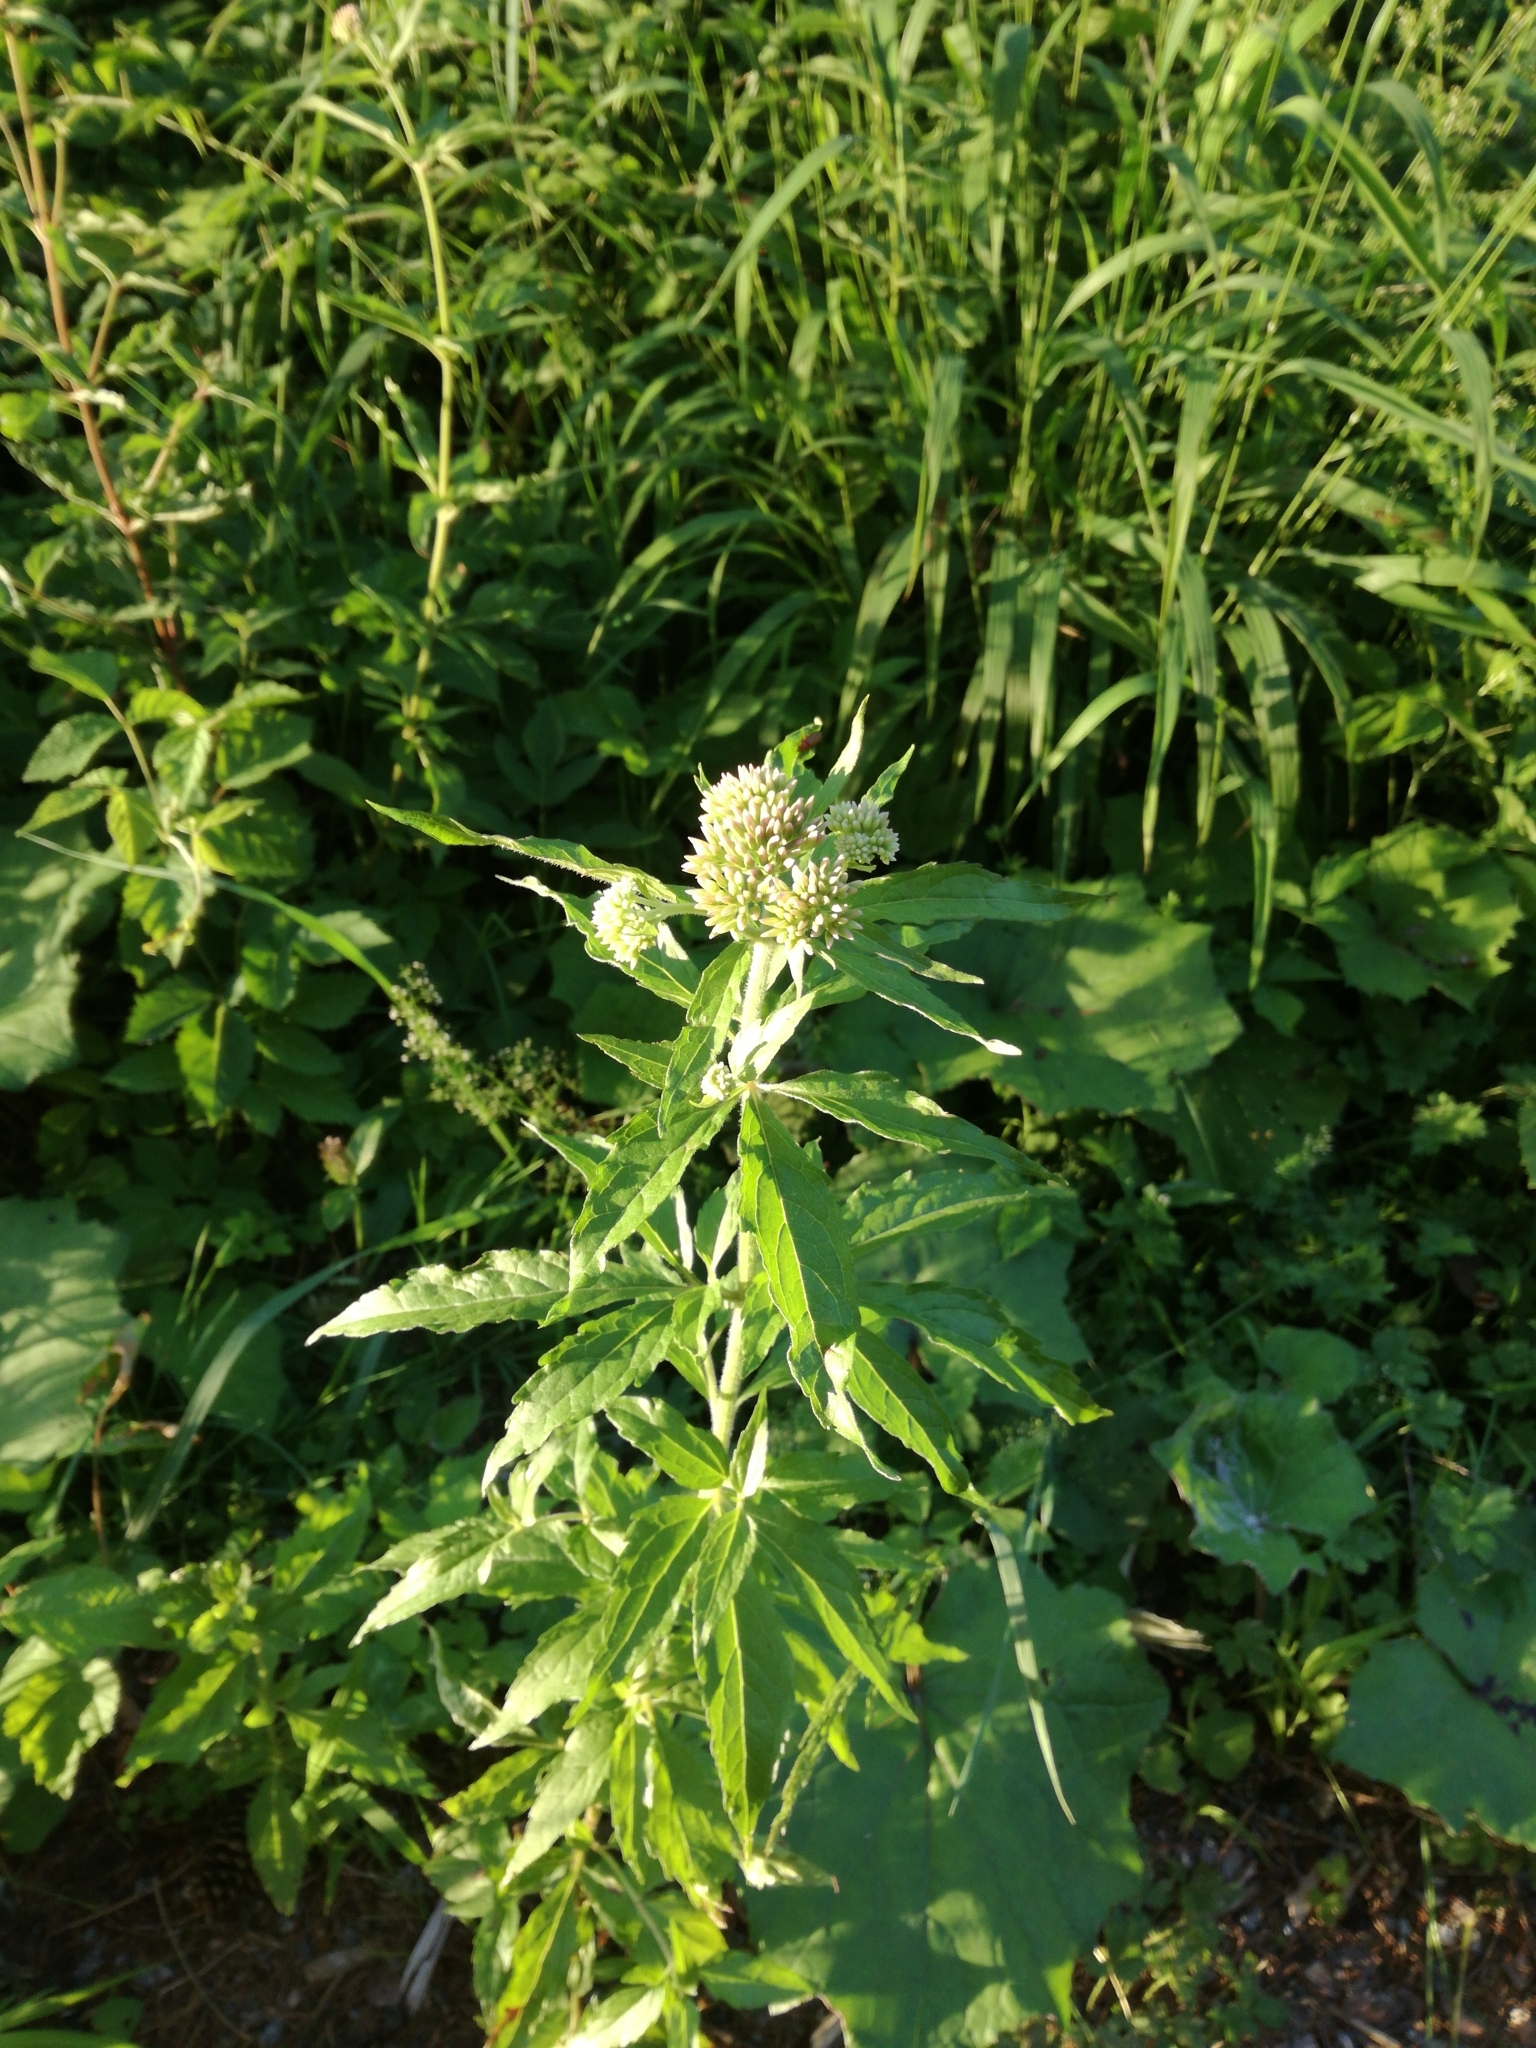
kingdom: Plantae
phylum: Tracheophyta
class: Magnoliopsida
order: Asterales
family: Asteraceae
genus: Eupatorium
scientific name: Eupatorium cannabinum
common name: Hemp-agrimony
